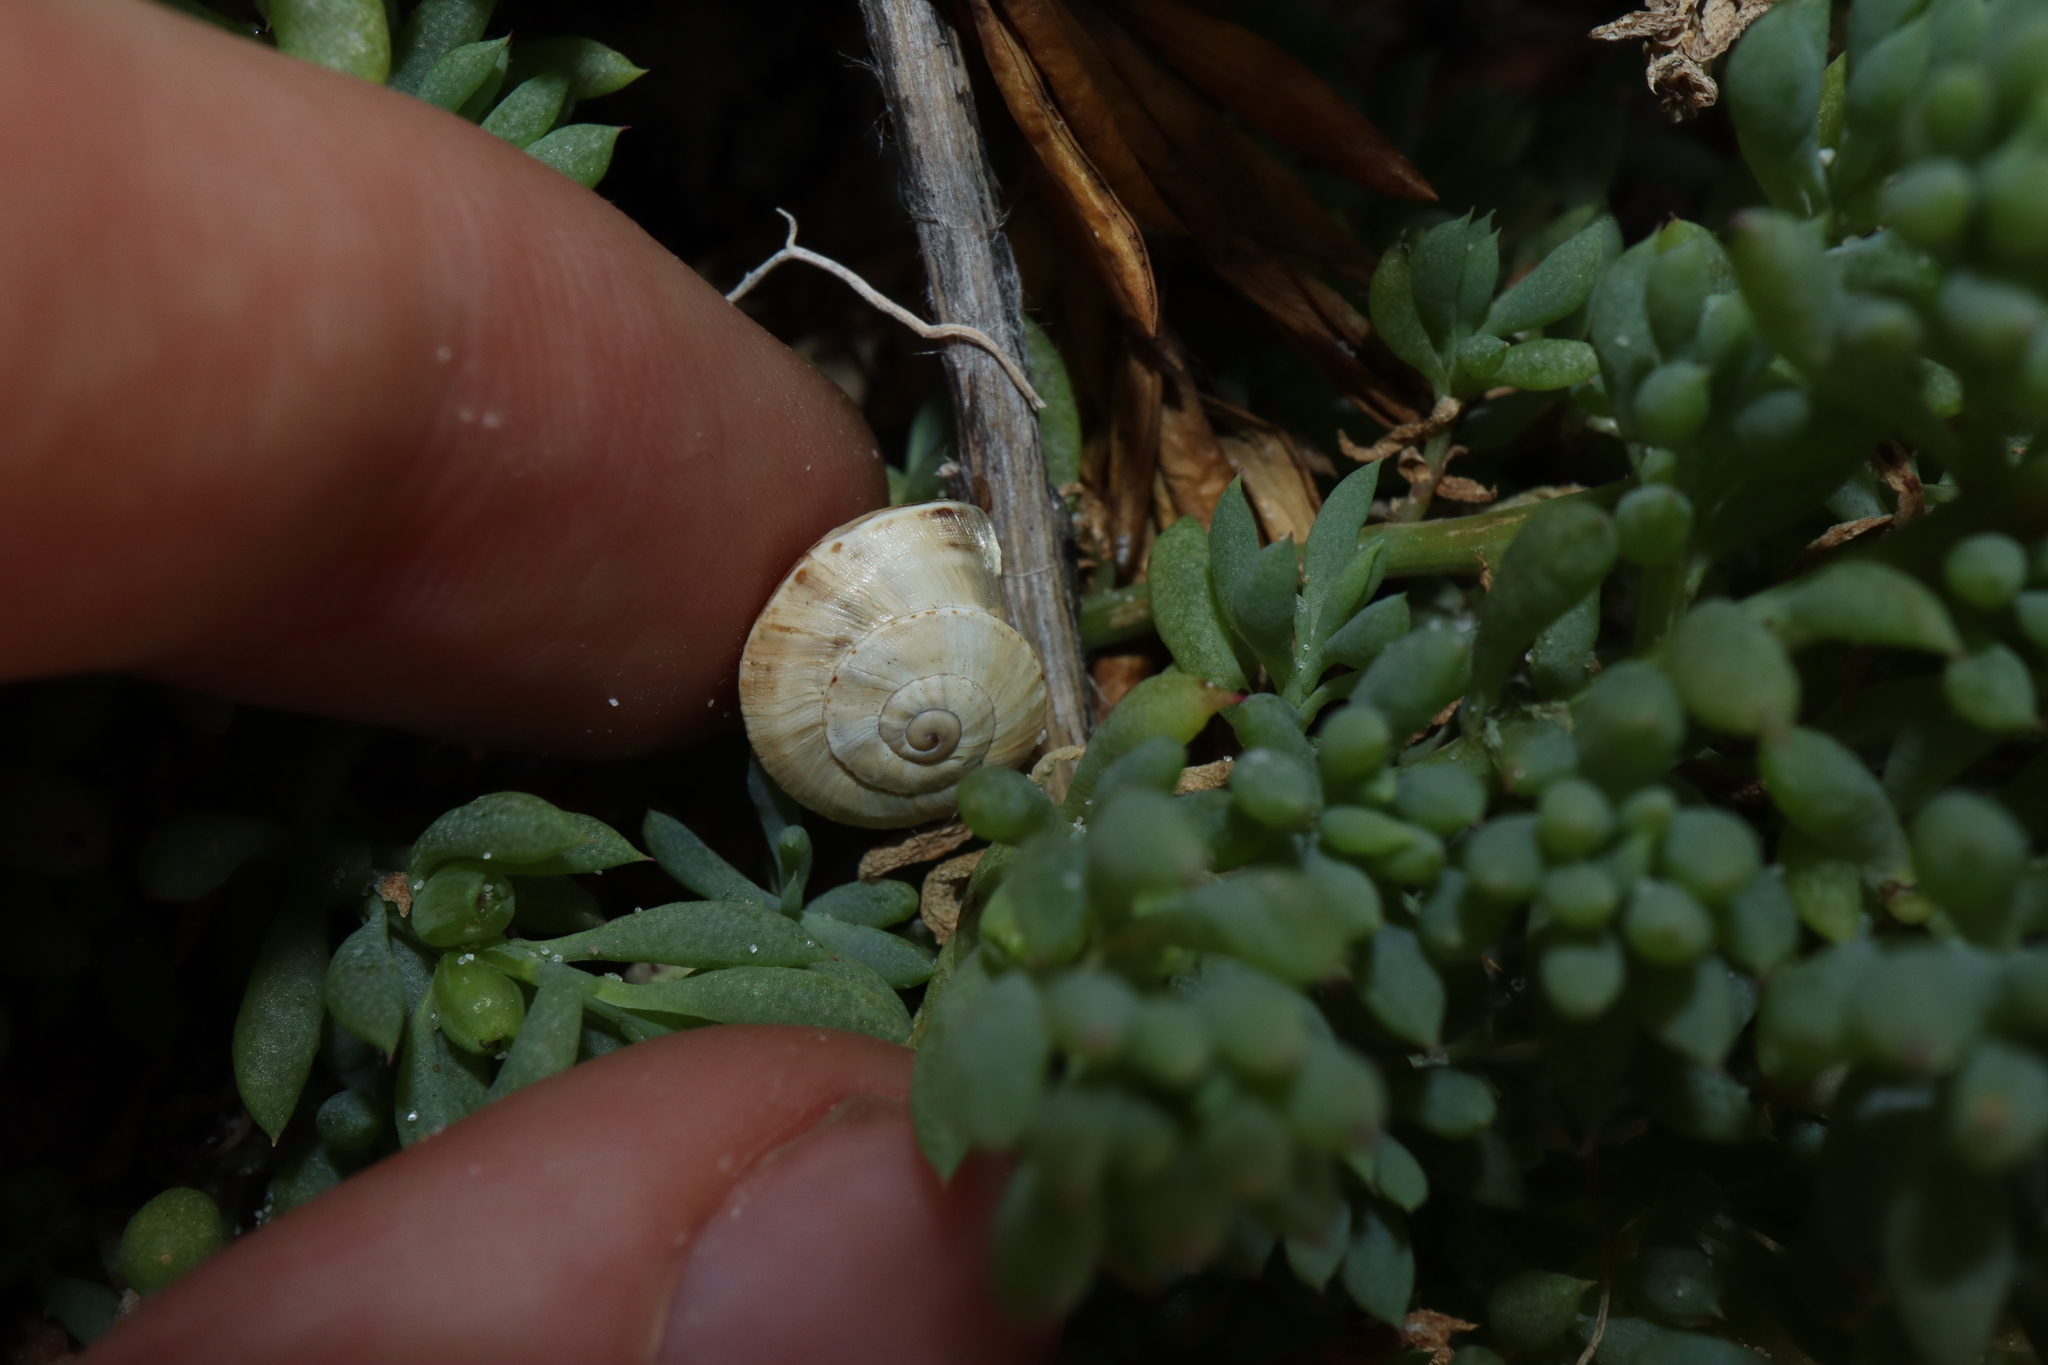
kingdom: Animalia
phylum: Mollusca
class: Gastropoda
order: Stylommatophora
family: Helicidae
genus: Theba
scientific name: Theba pisana
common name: White snail
